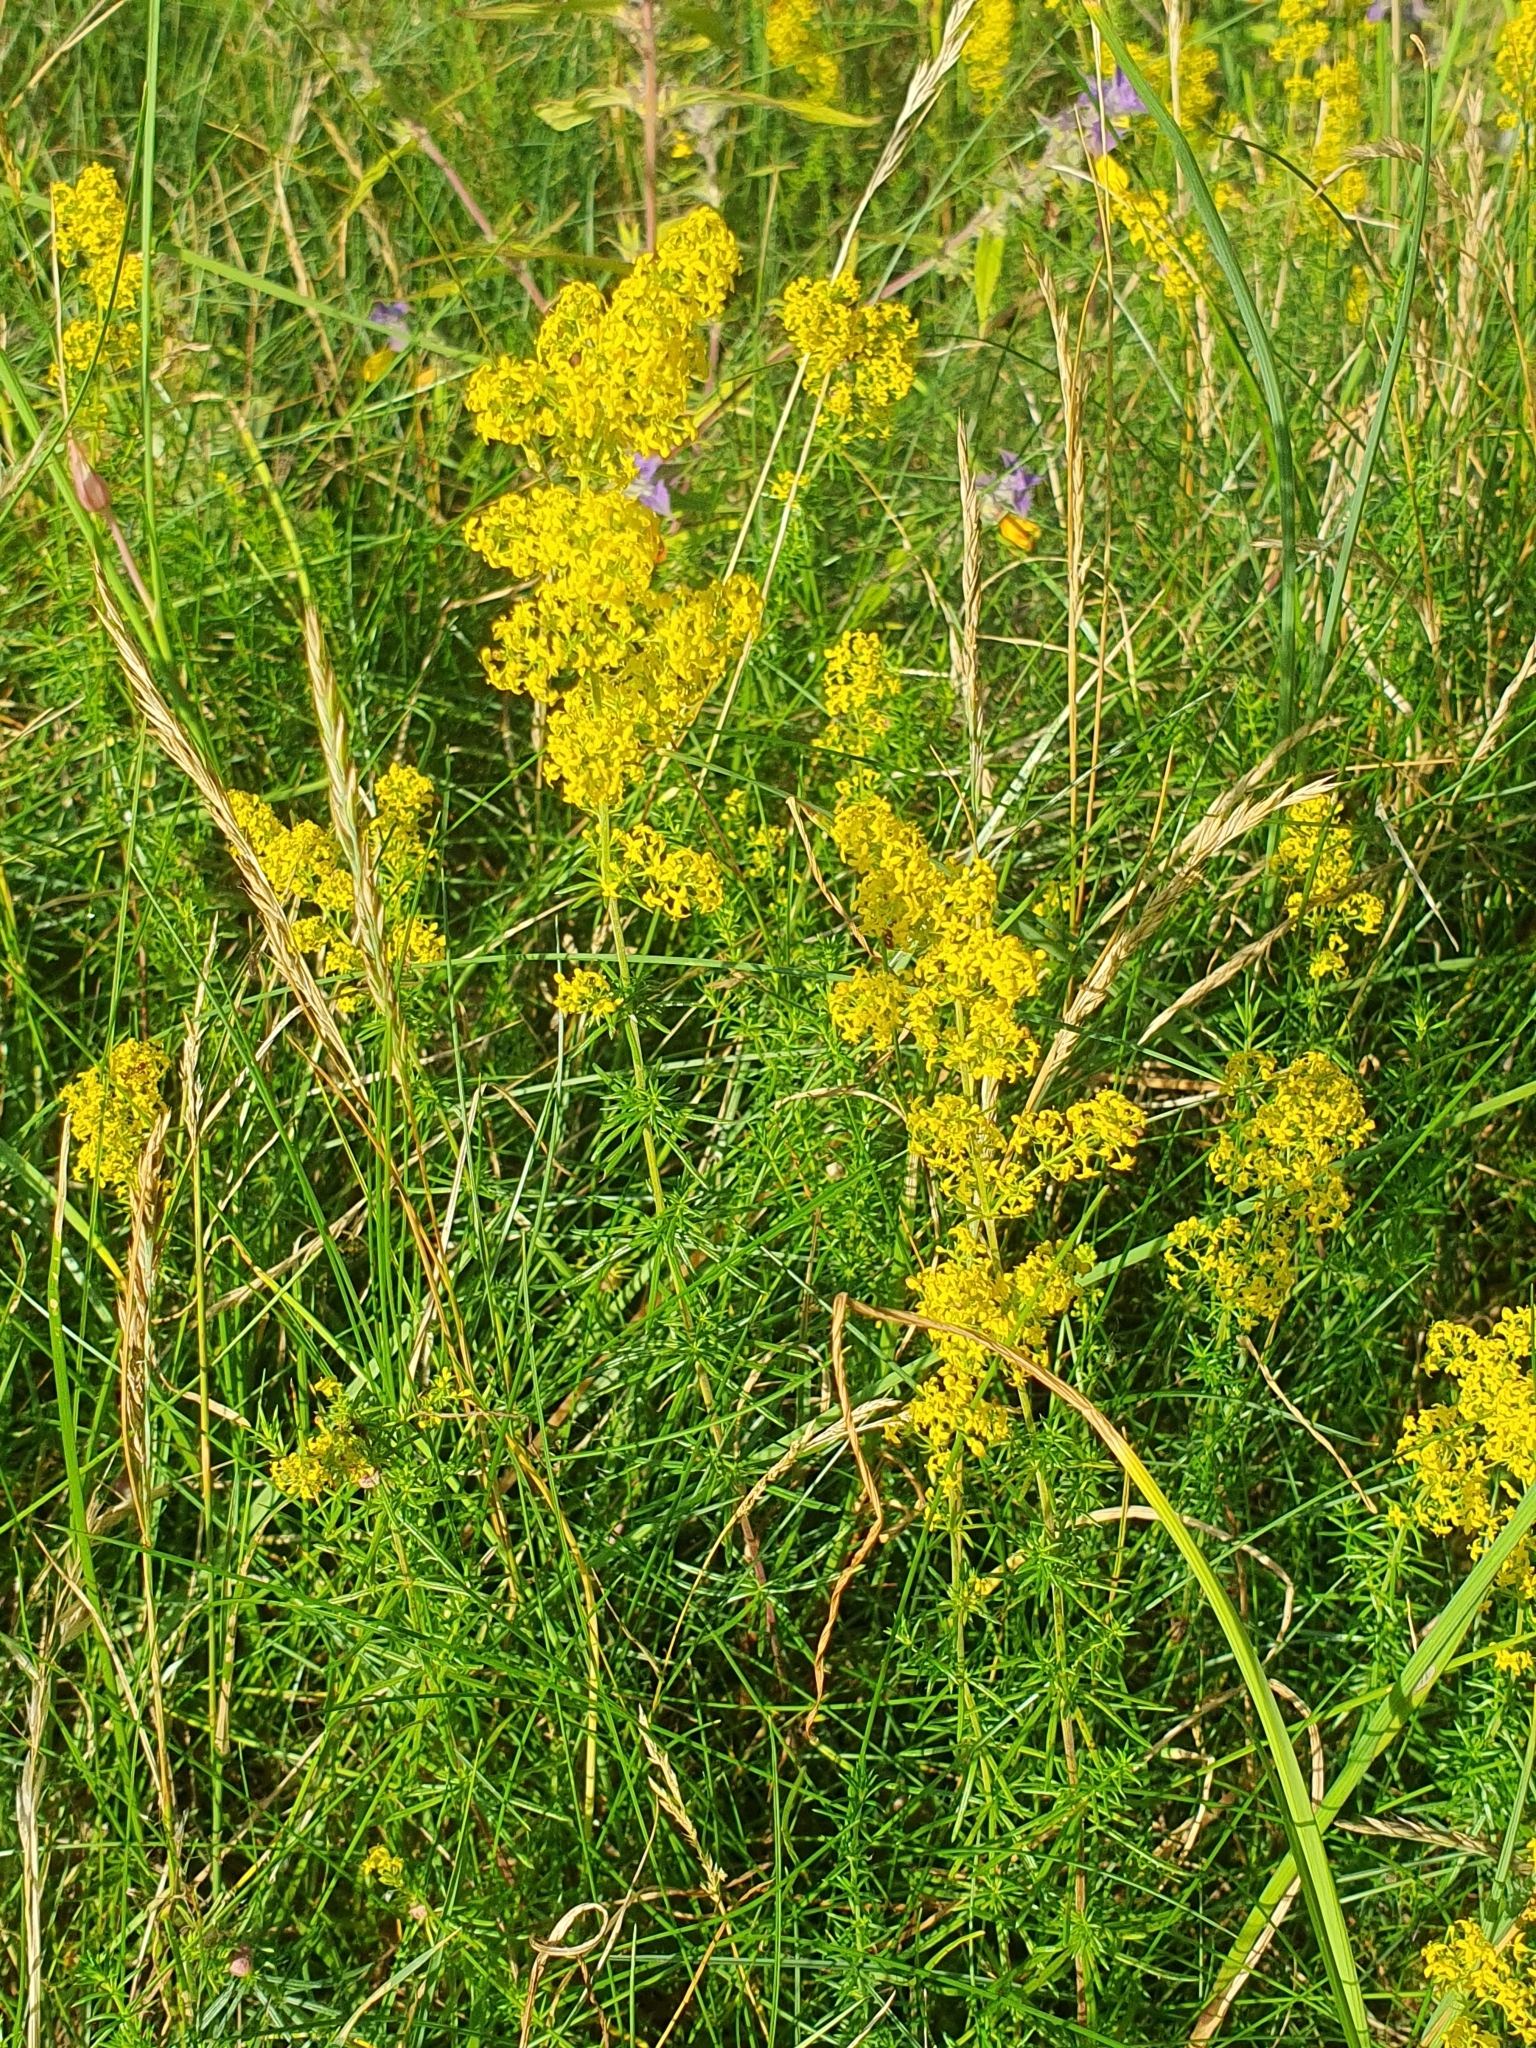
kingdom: Plantae
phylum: Tracheophyta
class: Magnoliopsida
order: Gentianales
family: Rubiaceae
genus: Galium
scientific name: Galium verum
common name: Lady's bedstraw
